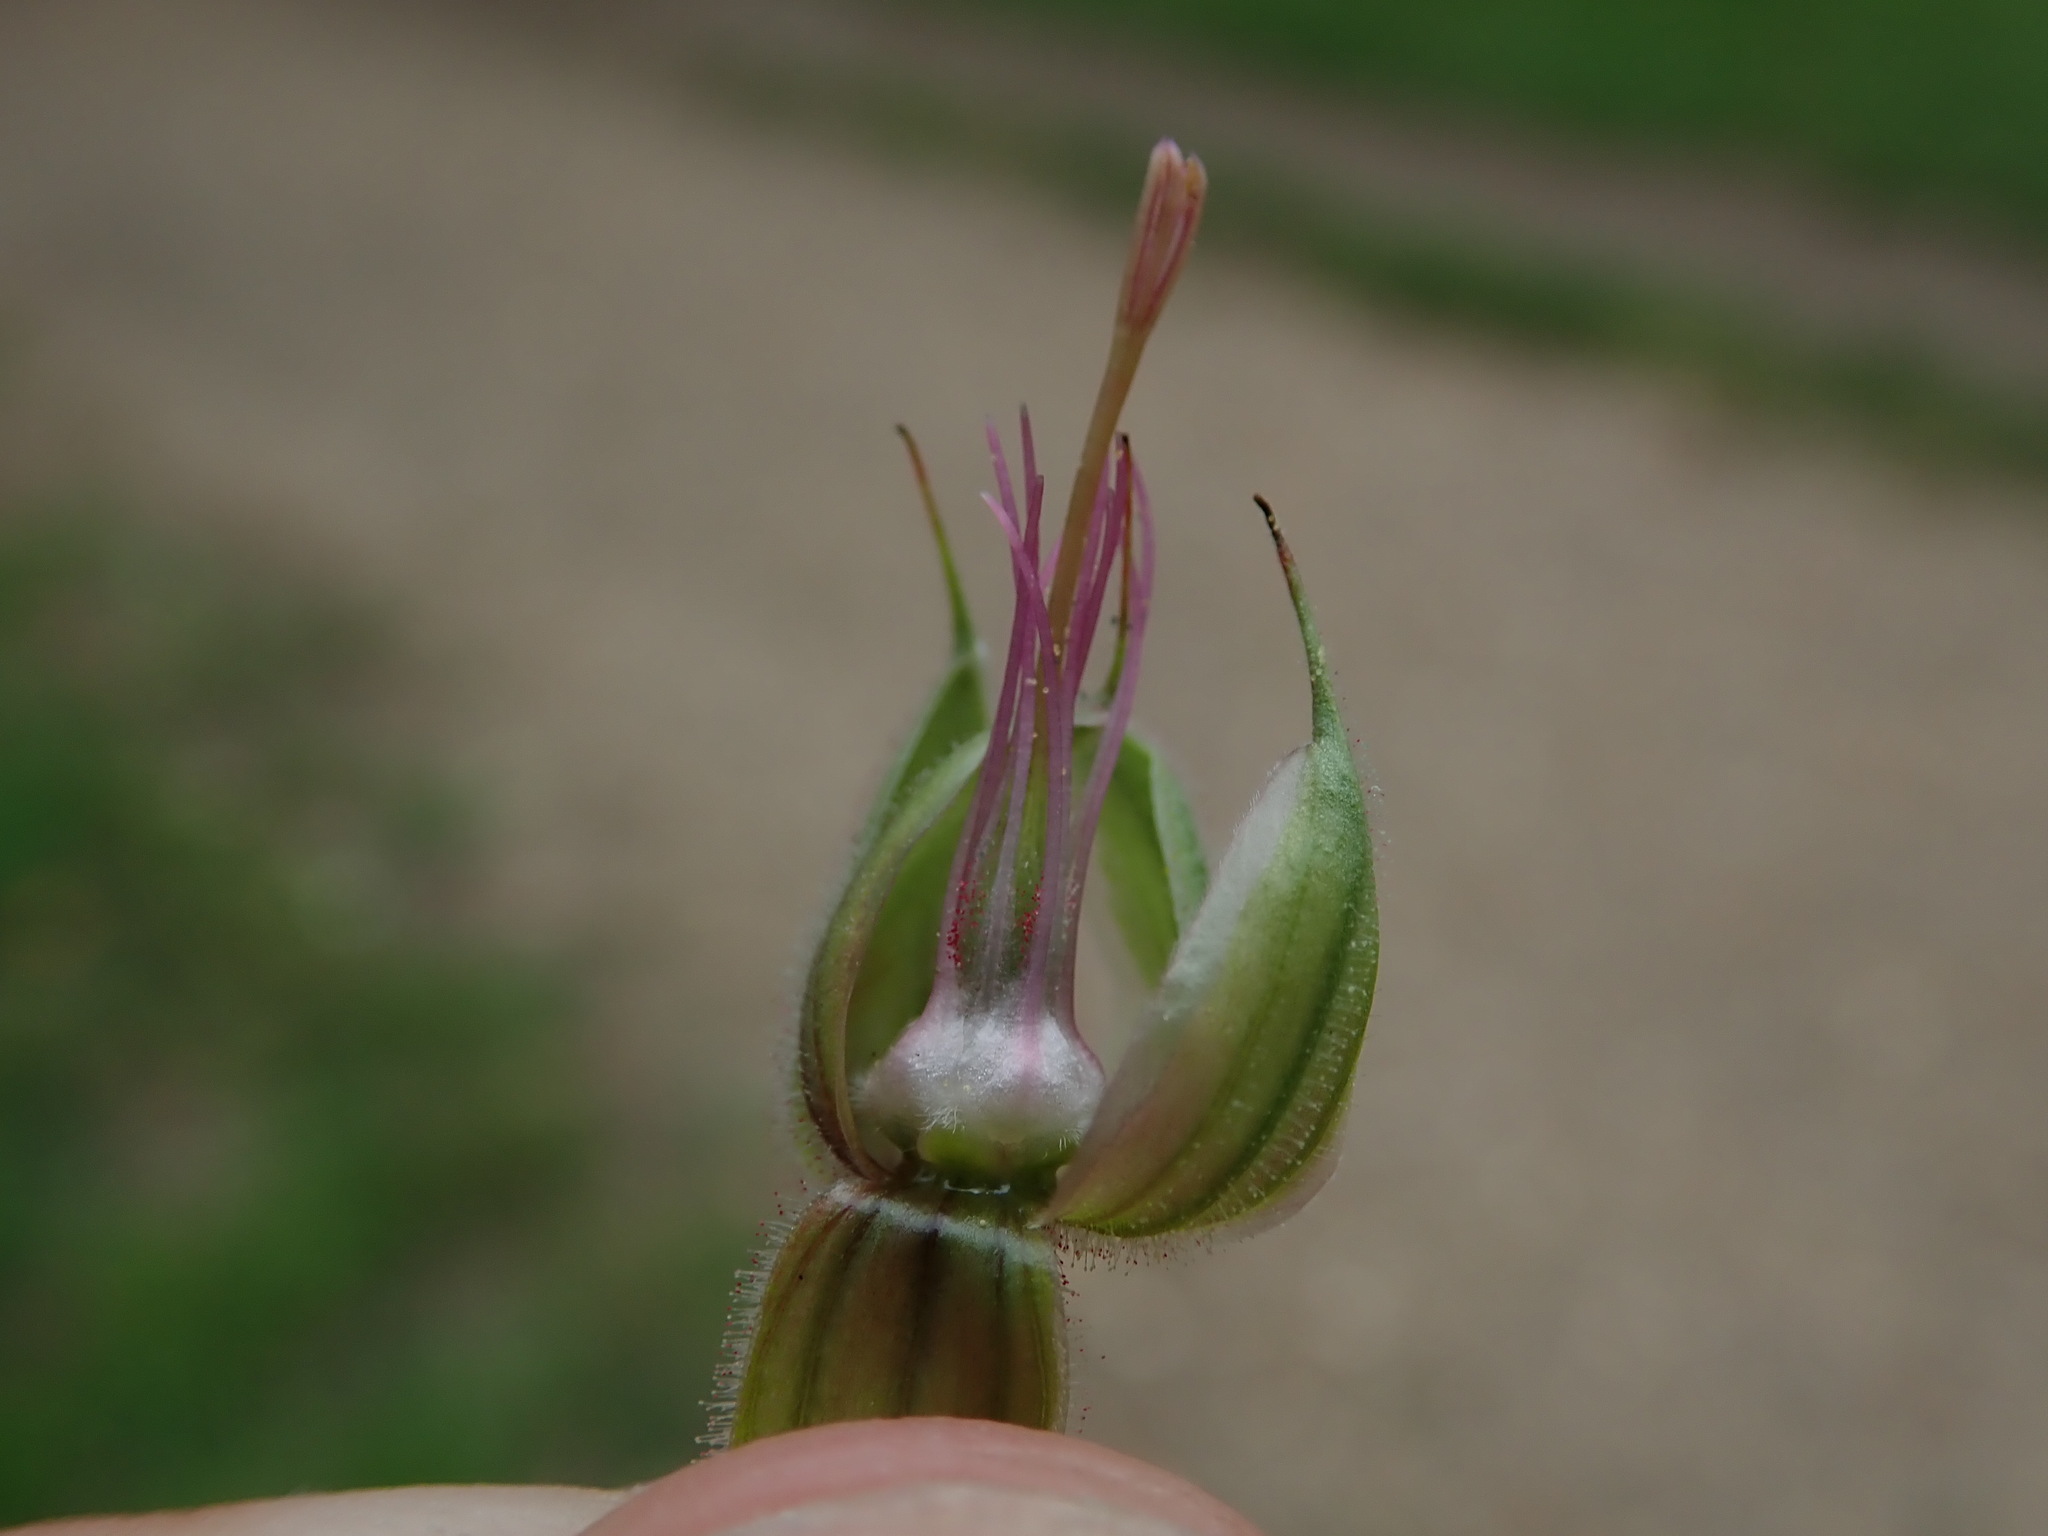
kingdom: Plantae
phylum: Tracheophyta
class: Magnoliopsida
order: Geraniales
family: Geraniaceae
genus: Geranium
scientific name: Geranium pratense
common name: Meadow crane's-bill
